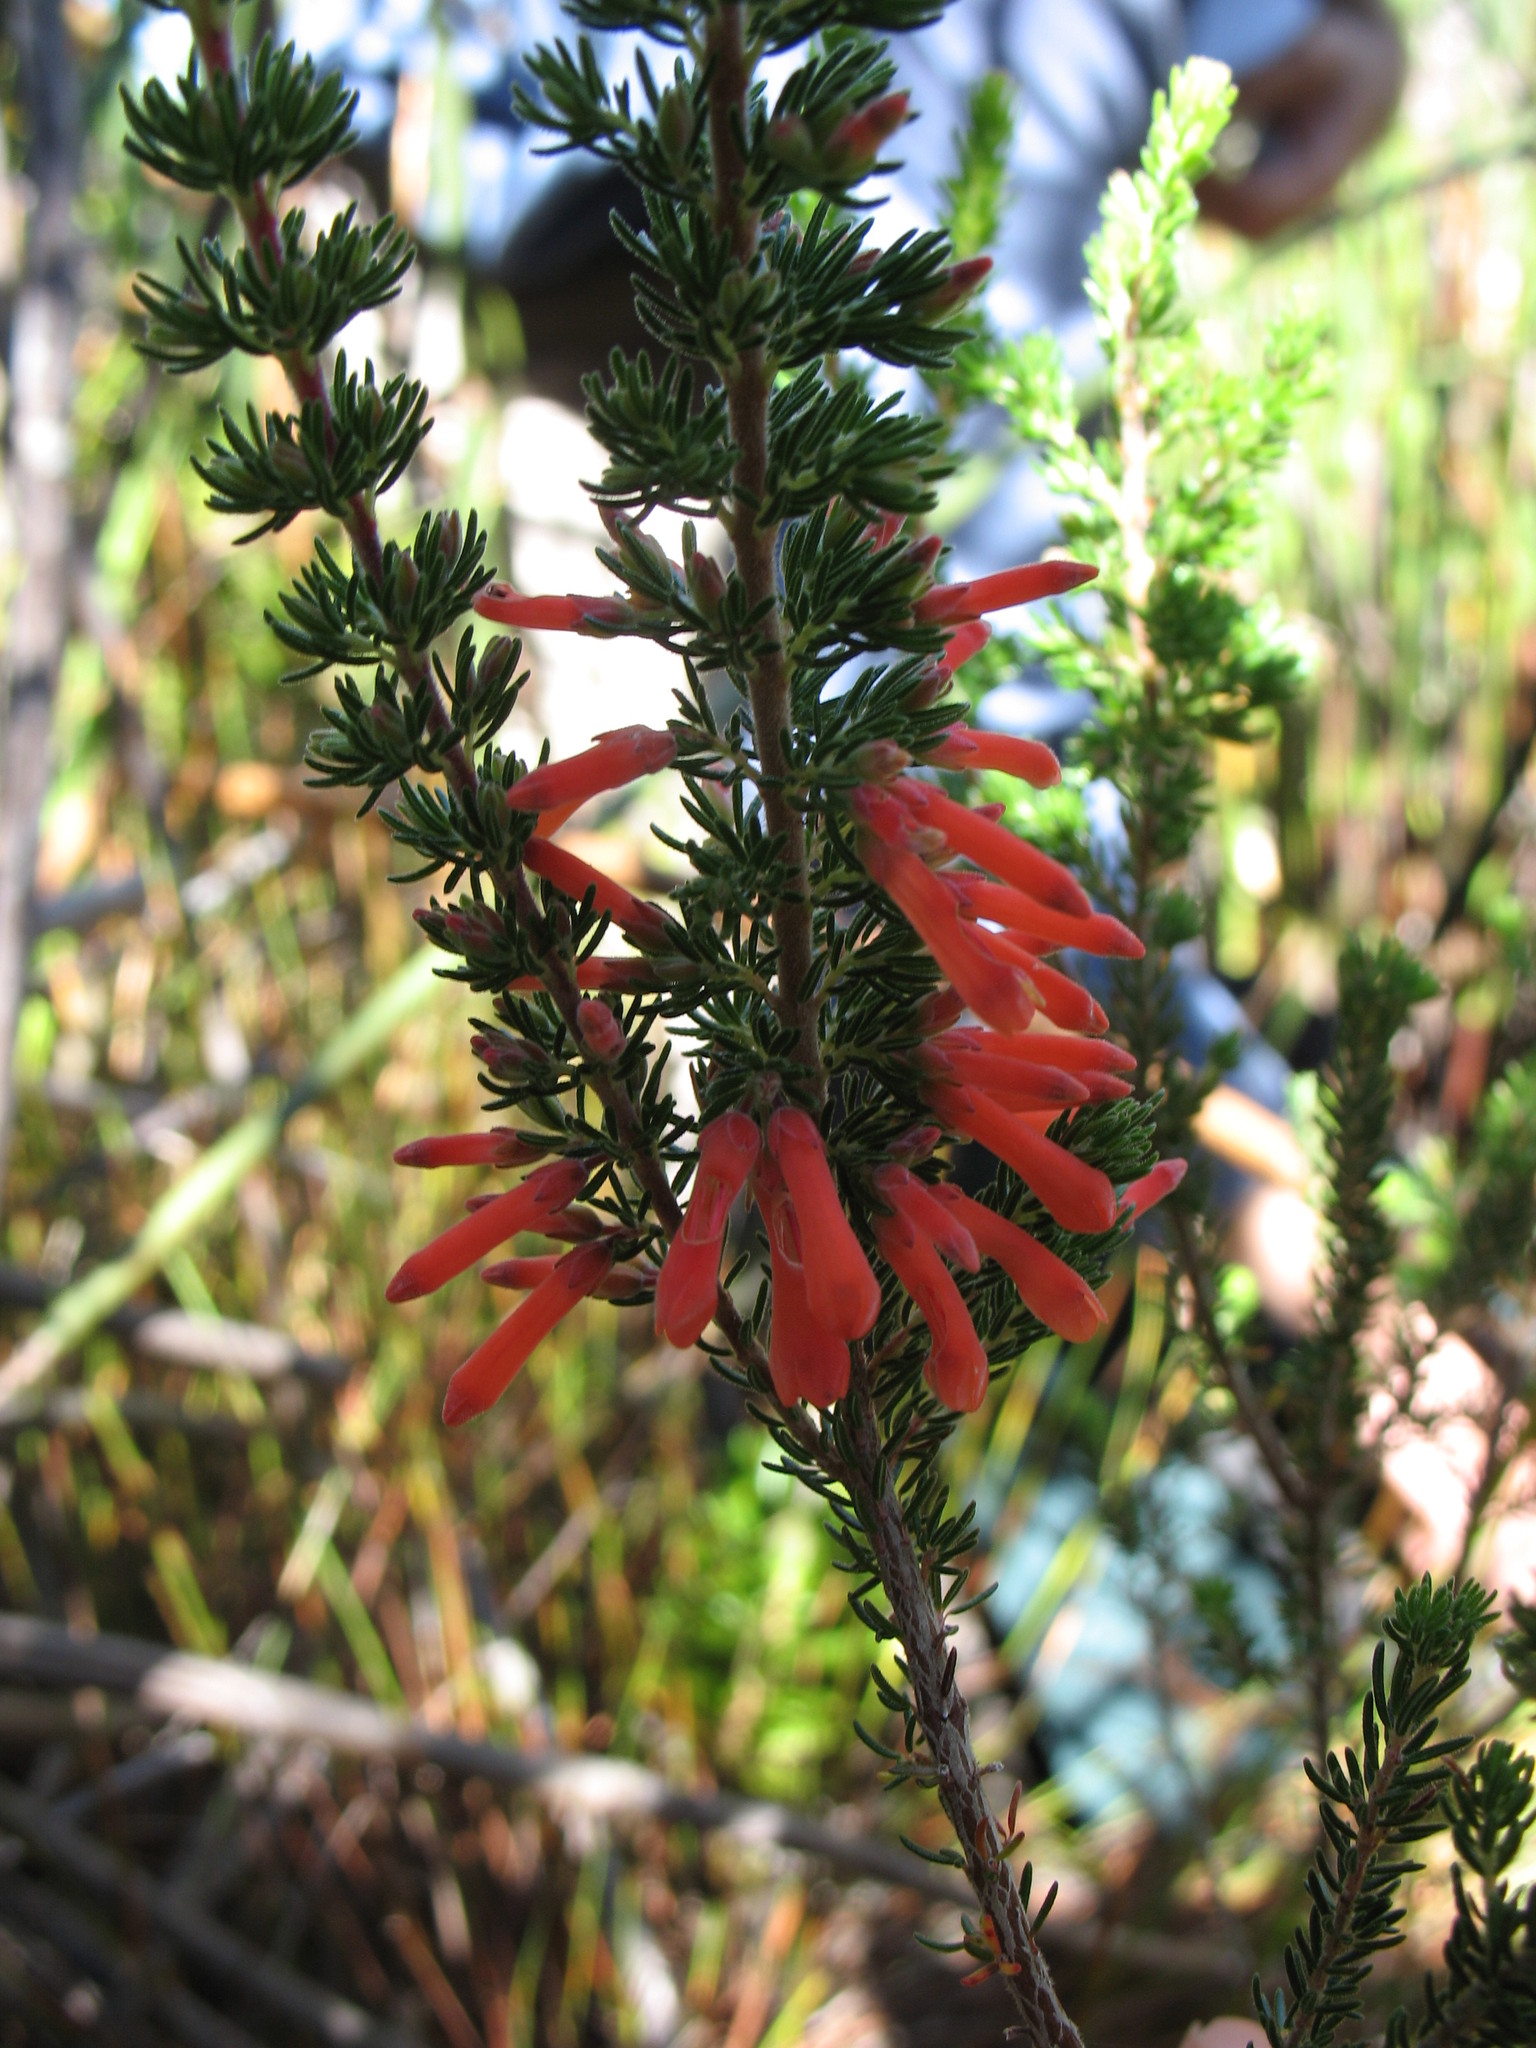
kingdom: Plantae
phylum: Tracheophyta
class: Magnoliopsida
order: Ericales
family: Ericaceae
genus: Erica
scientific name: Erica pillansii
